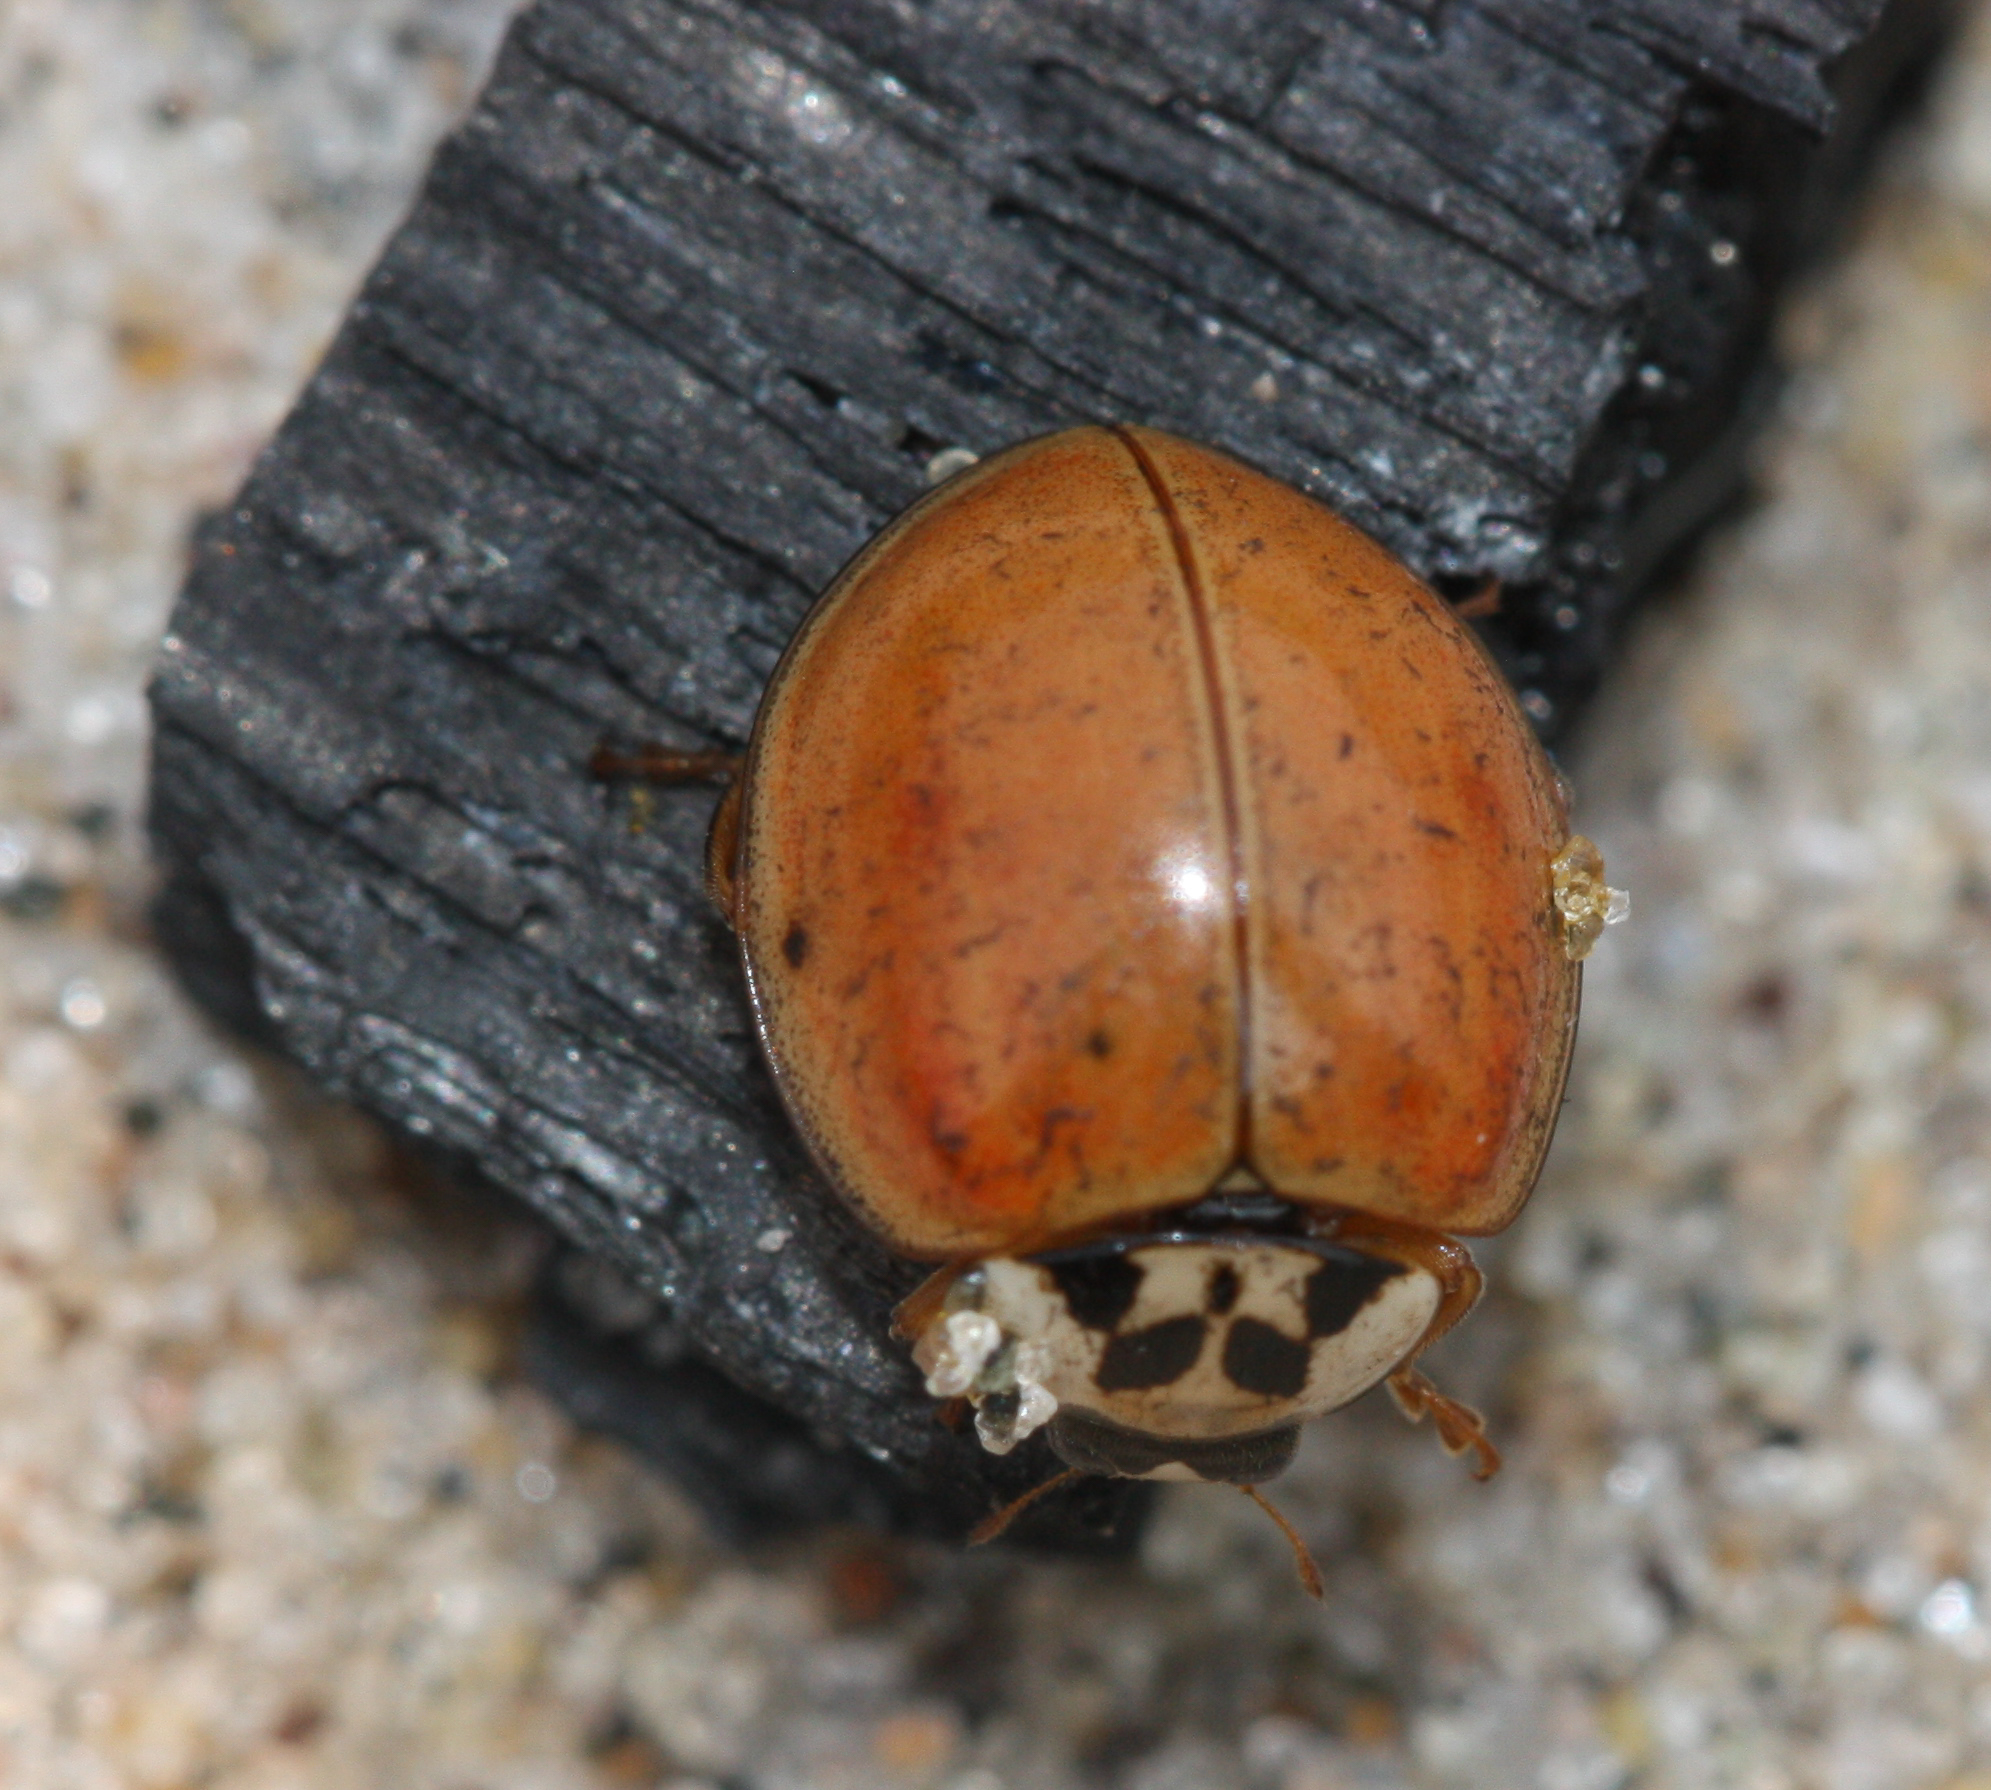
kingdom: Animalia
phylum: Arthropoda
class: Insecta
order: Coleoptera
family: Coccinellidae
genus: Harmonia
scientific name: Harmonia axyridis
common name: Harlequin ladybird
